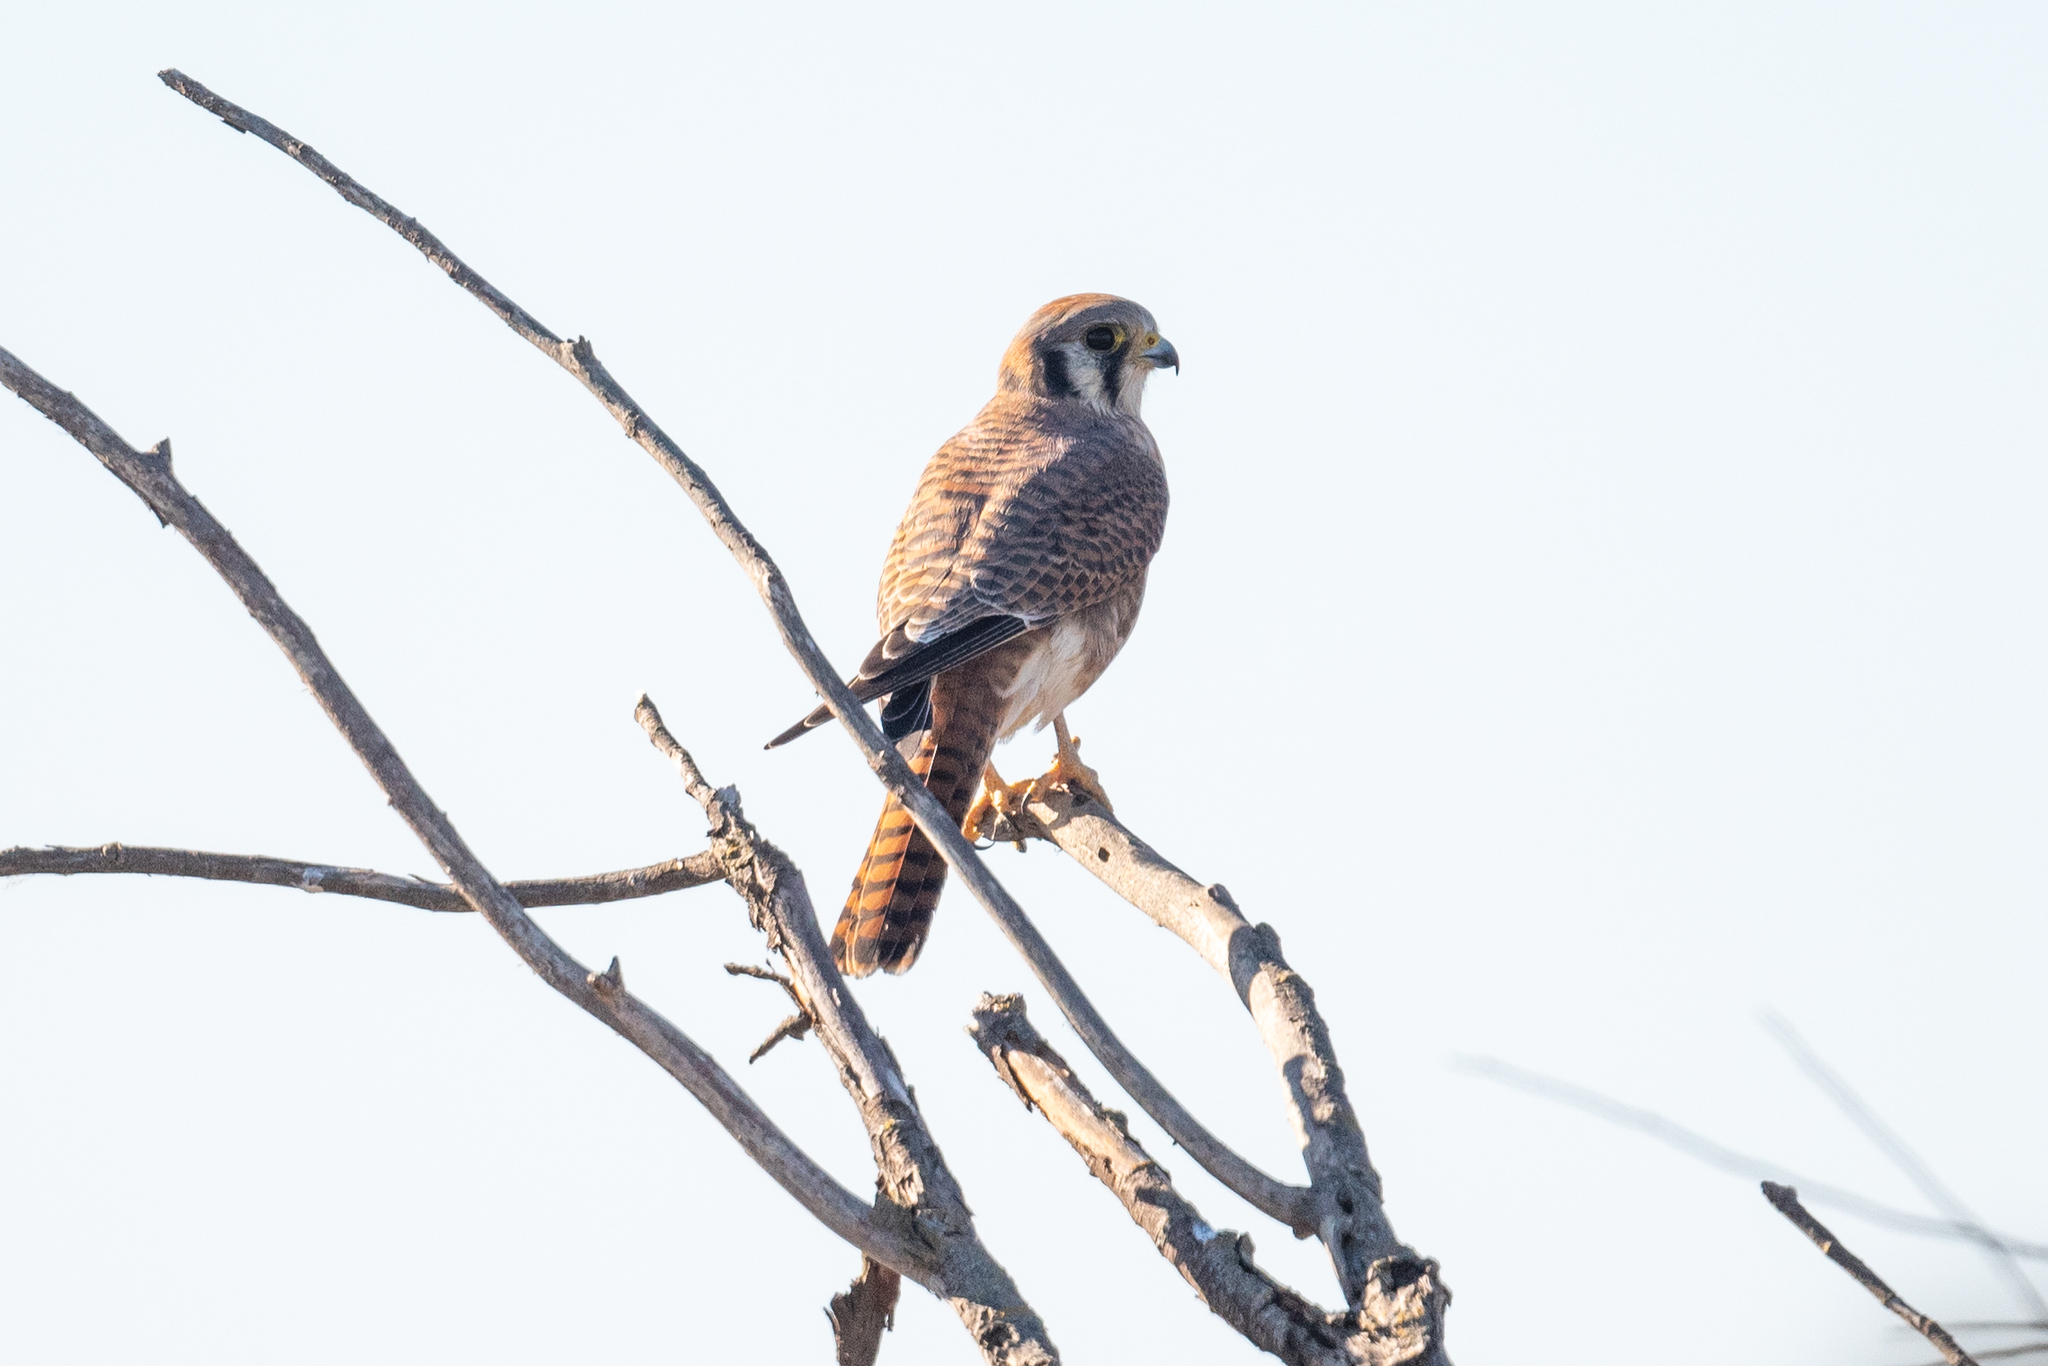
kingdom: Animalia
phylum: Chordata
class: Aves
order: Falconiformes
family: Falconidae
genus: Falco
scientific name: Falco sparverius
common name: American kestrel
